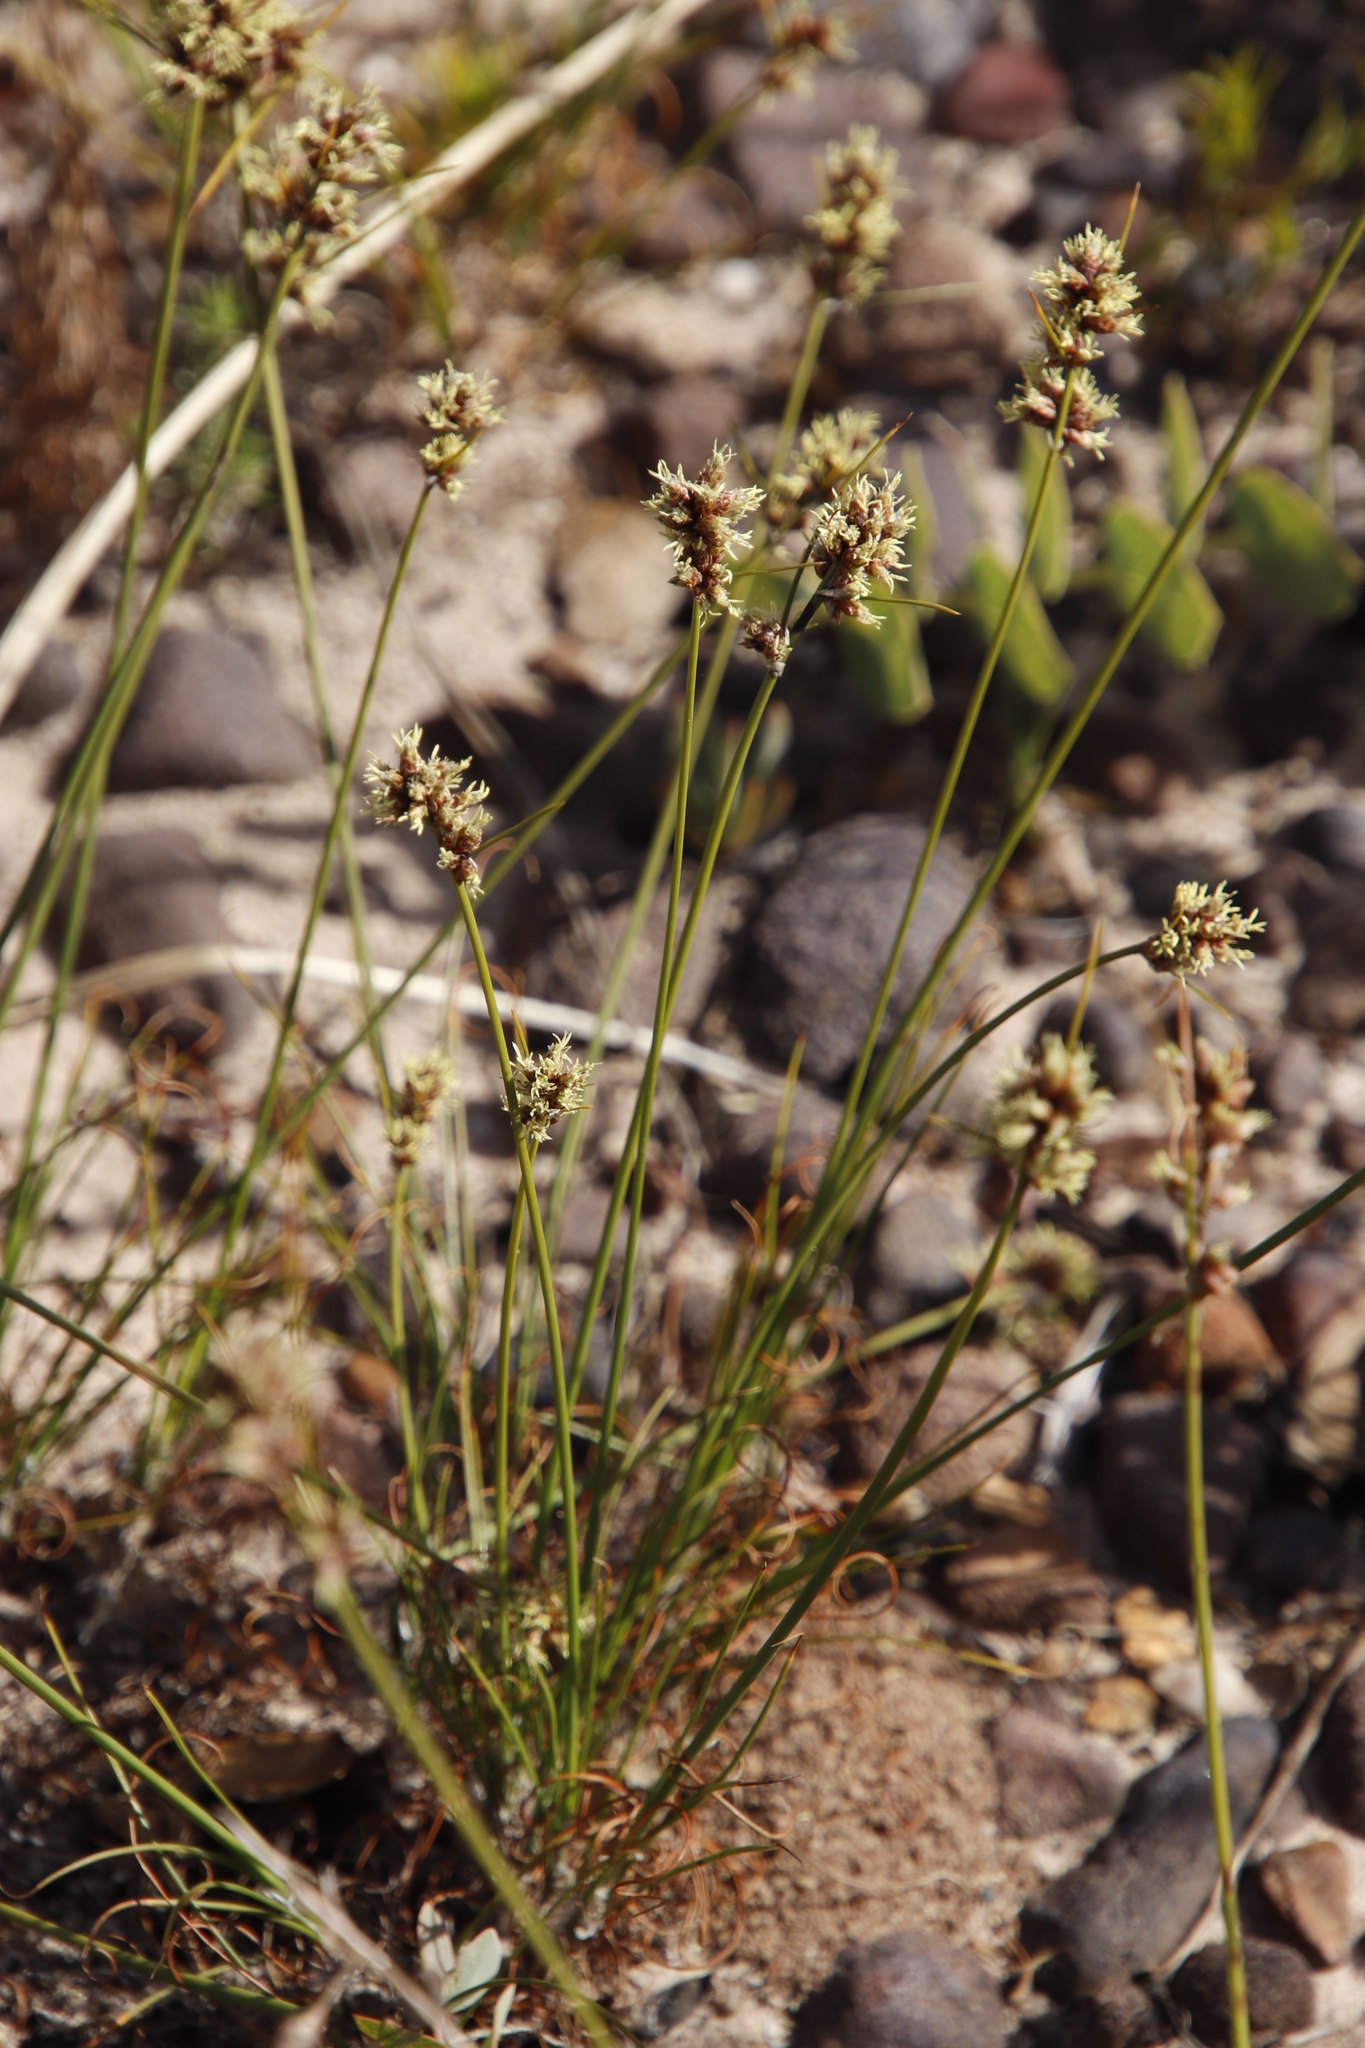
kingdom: Plantae
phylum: Tracheophyta
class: Liliopsida
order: Poales
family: Cyperaceae
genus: Ficinia
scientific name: Ficinia bulbosa
